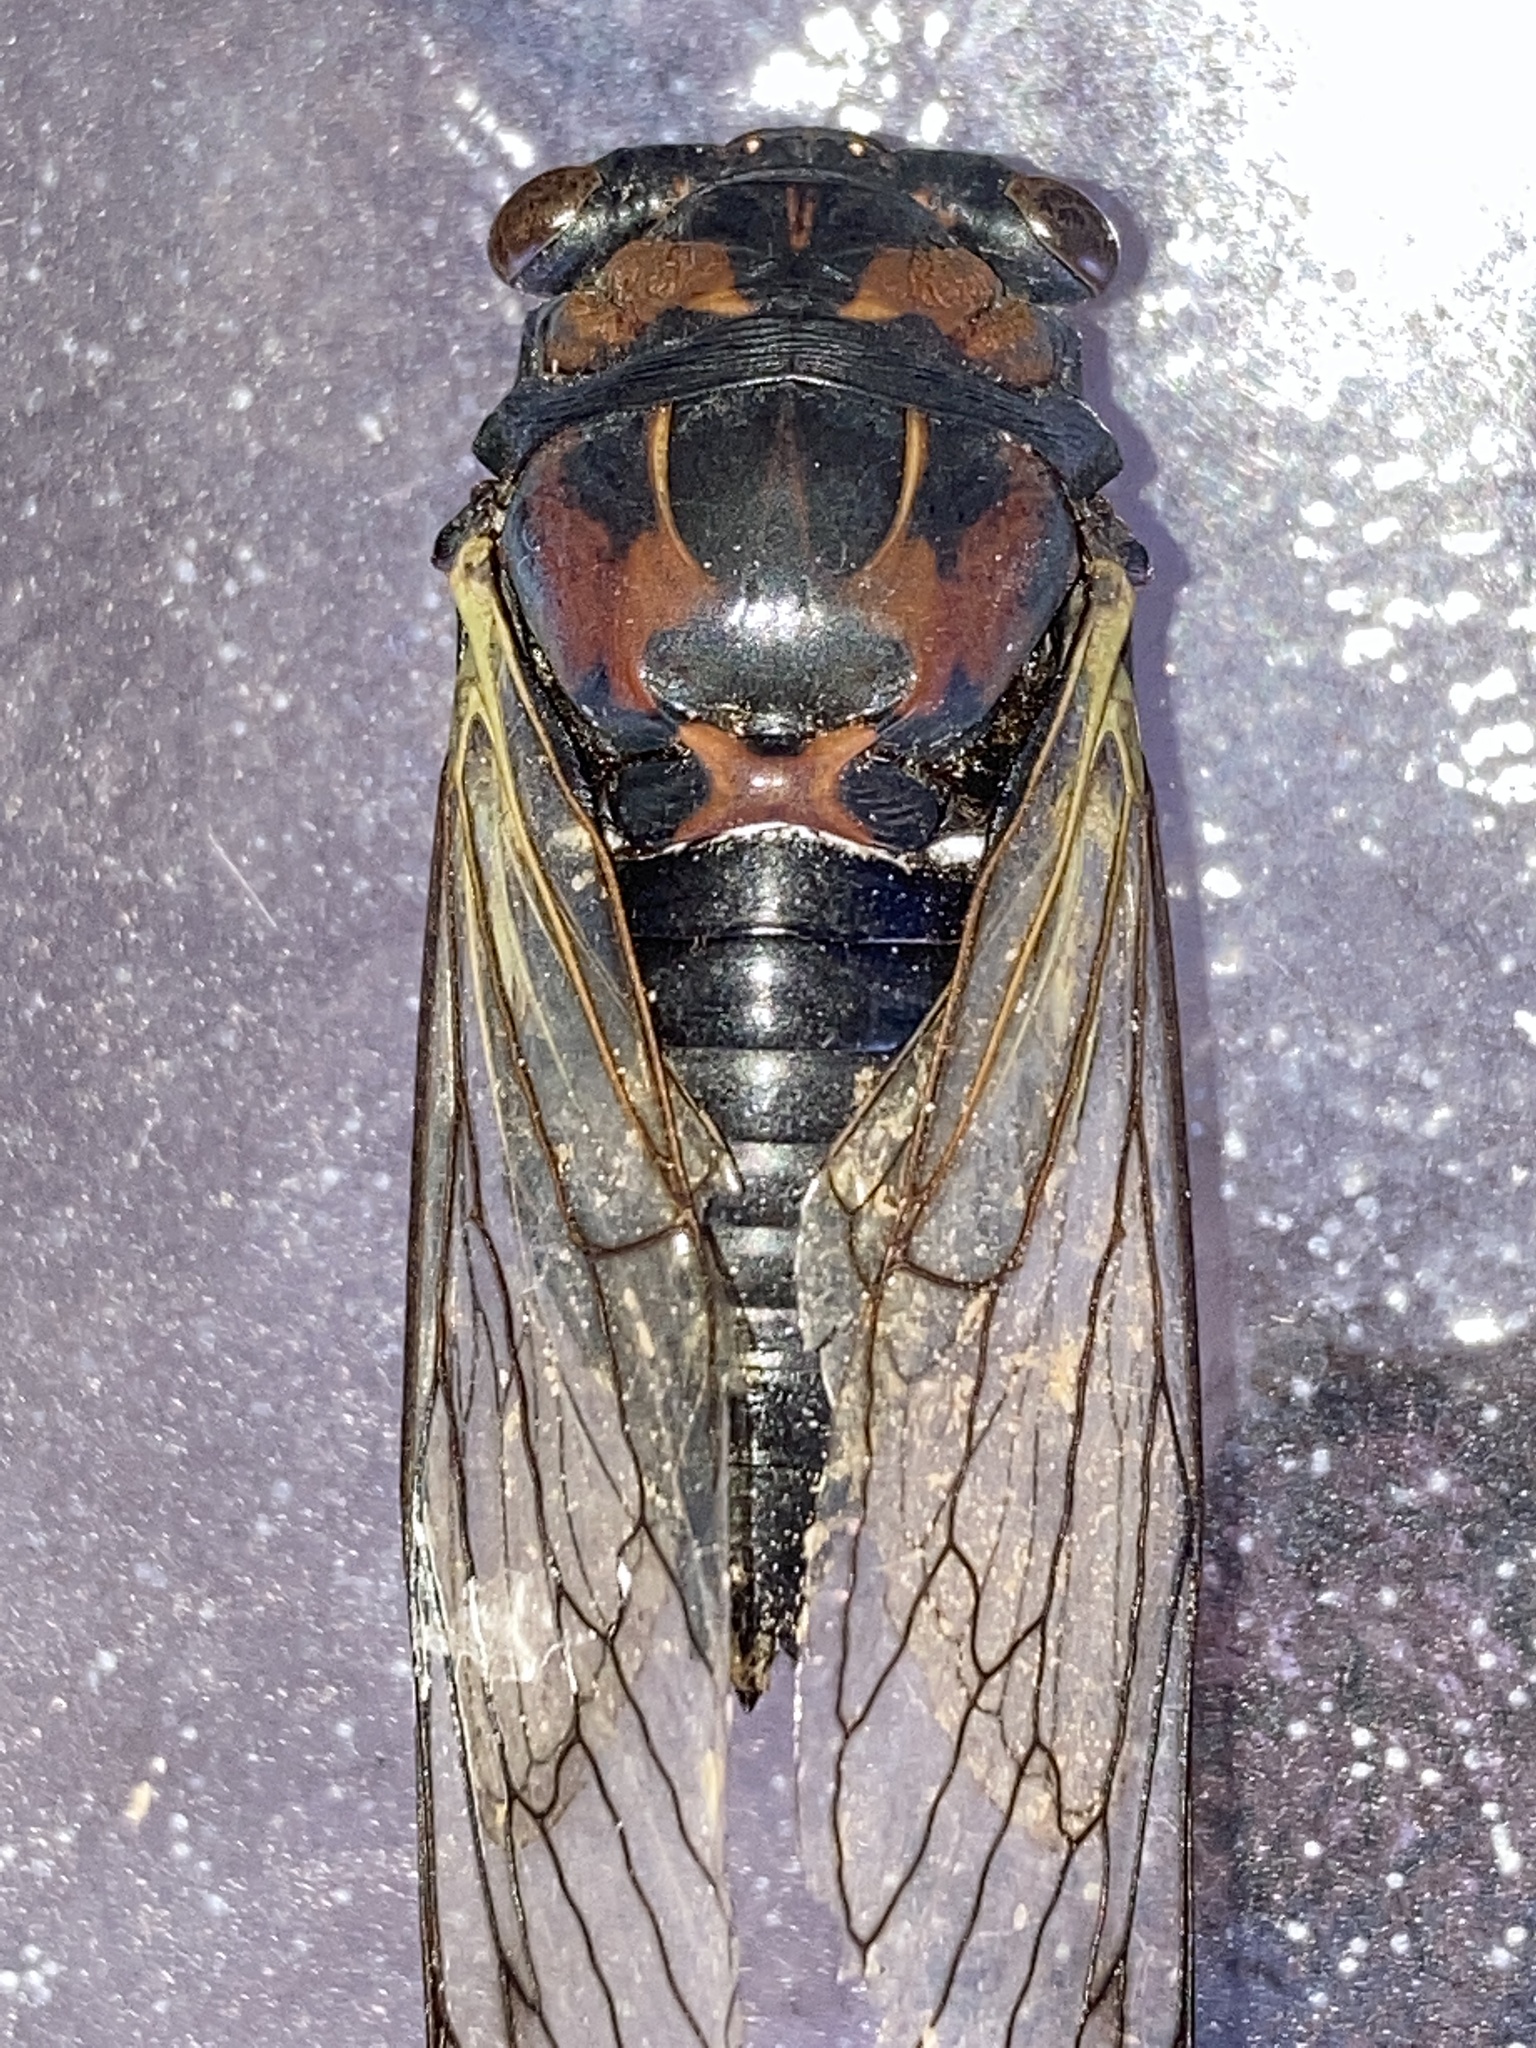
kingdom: Animalia
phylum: Arthropoda
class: Insecta
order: Hemiptera
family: Cicadidae
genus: Neotibicen
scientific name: Neotibicen lyricen
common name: Lyric cicada
